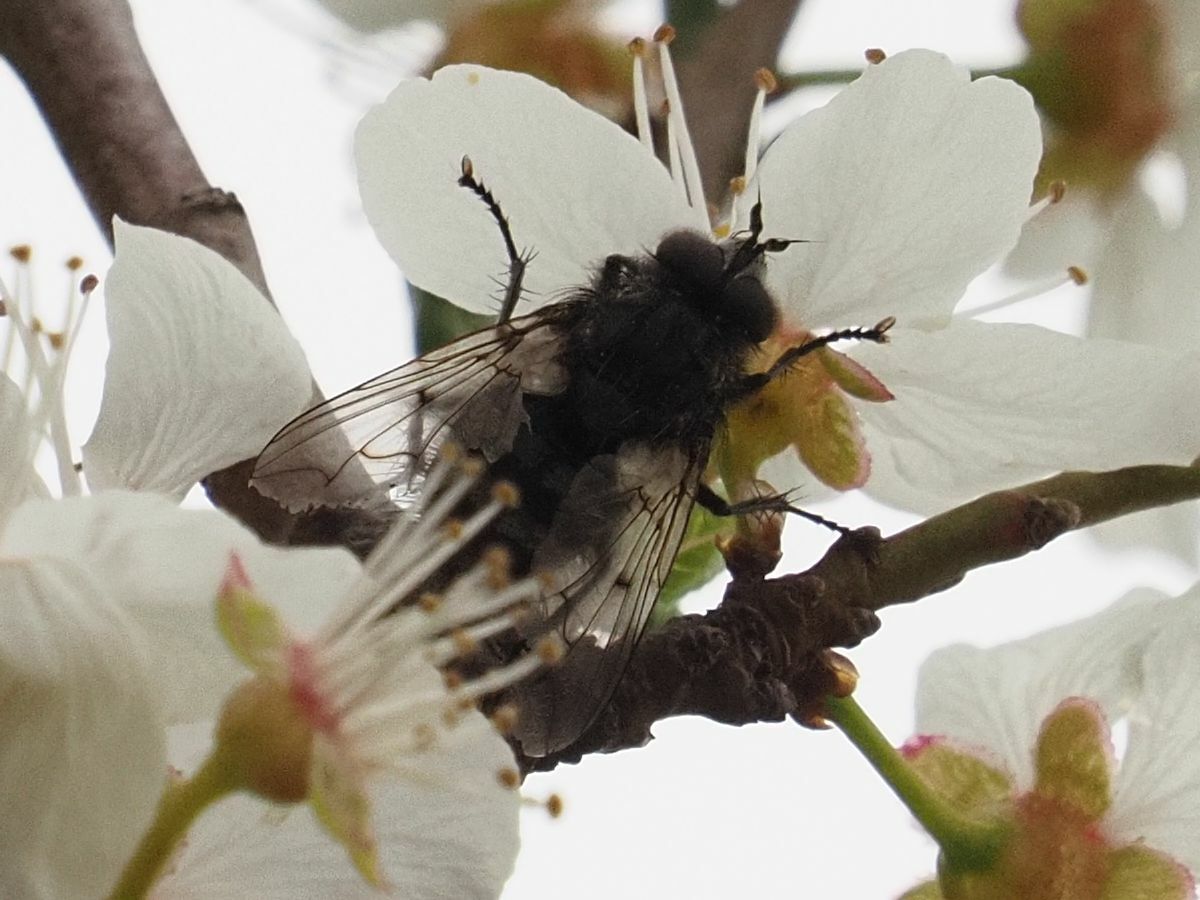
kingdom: Animalia
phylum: Arthropoda
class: Insecta
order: Diptera
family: Tachinidae
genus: Panzeria
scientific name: Panzeria puparum
